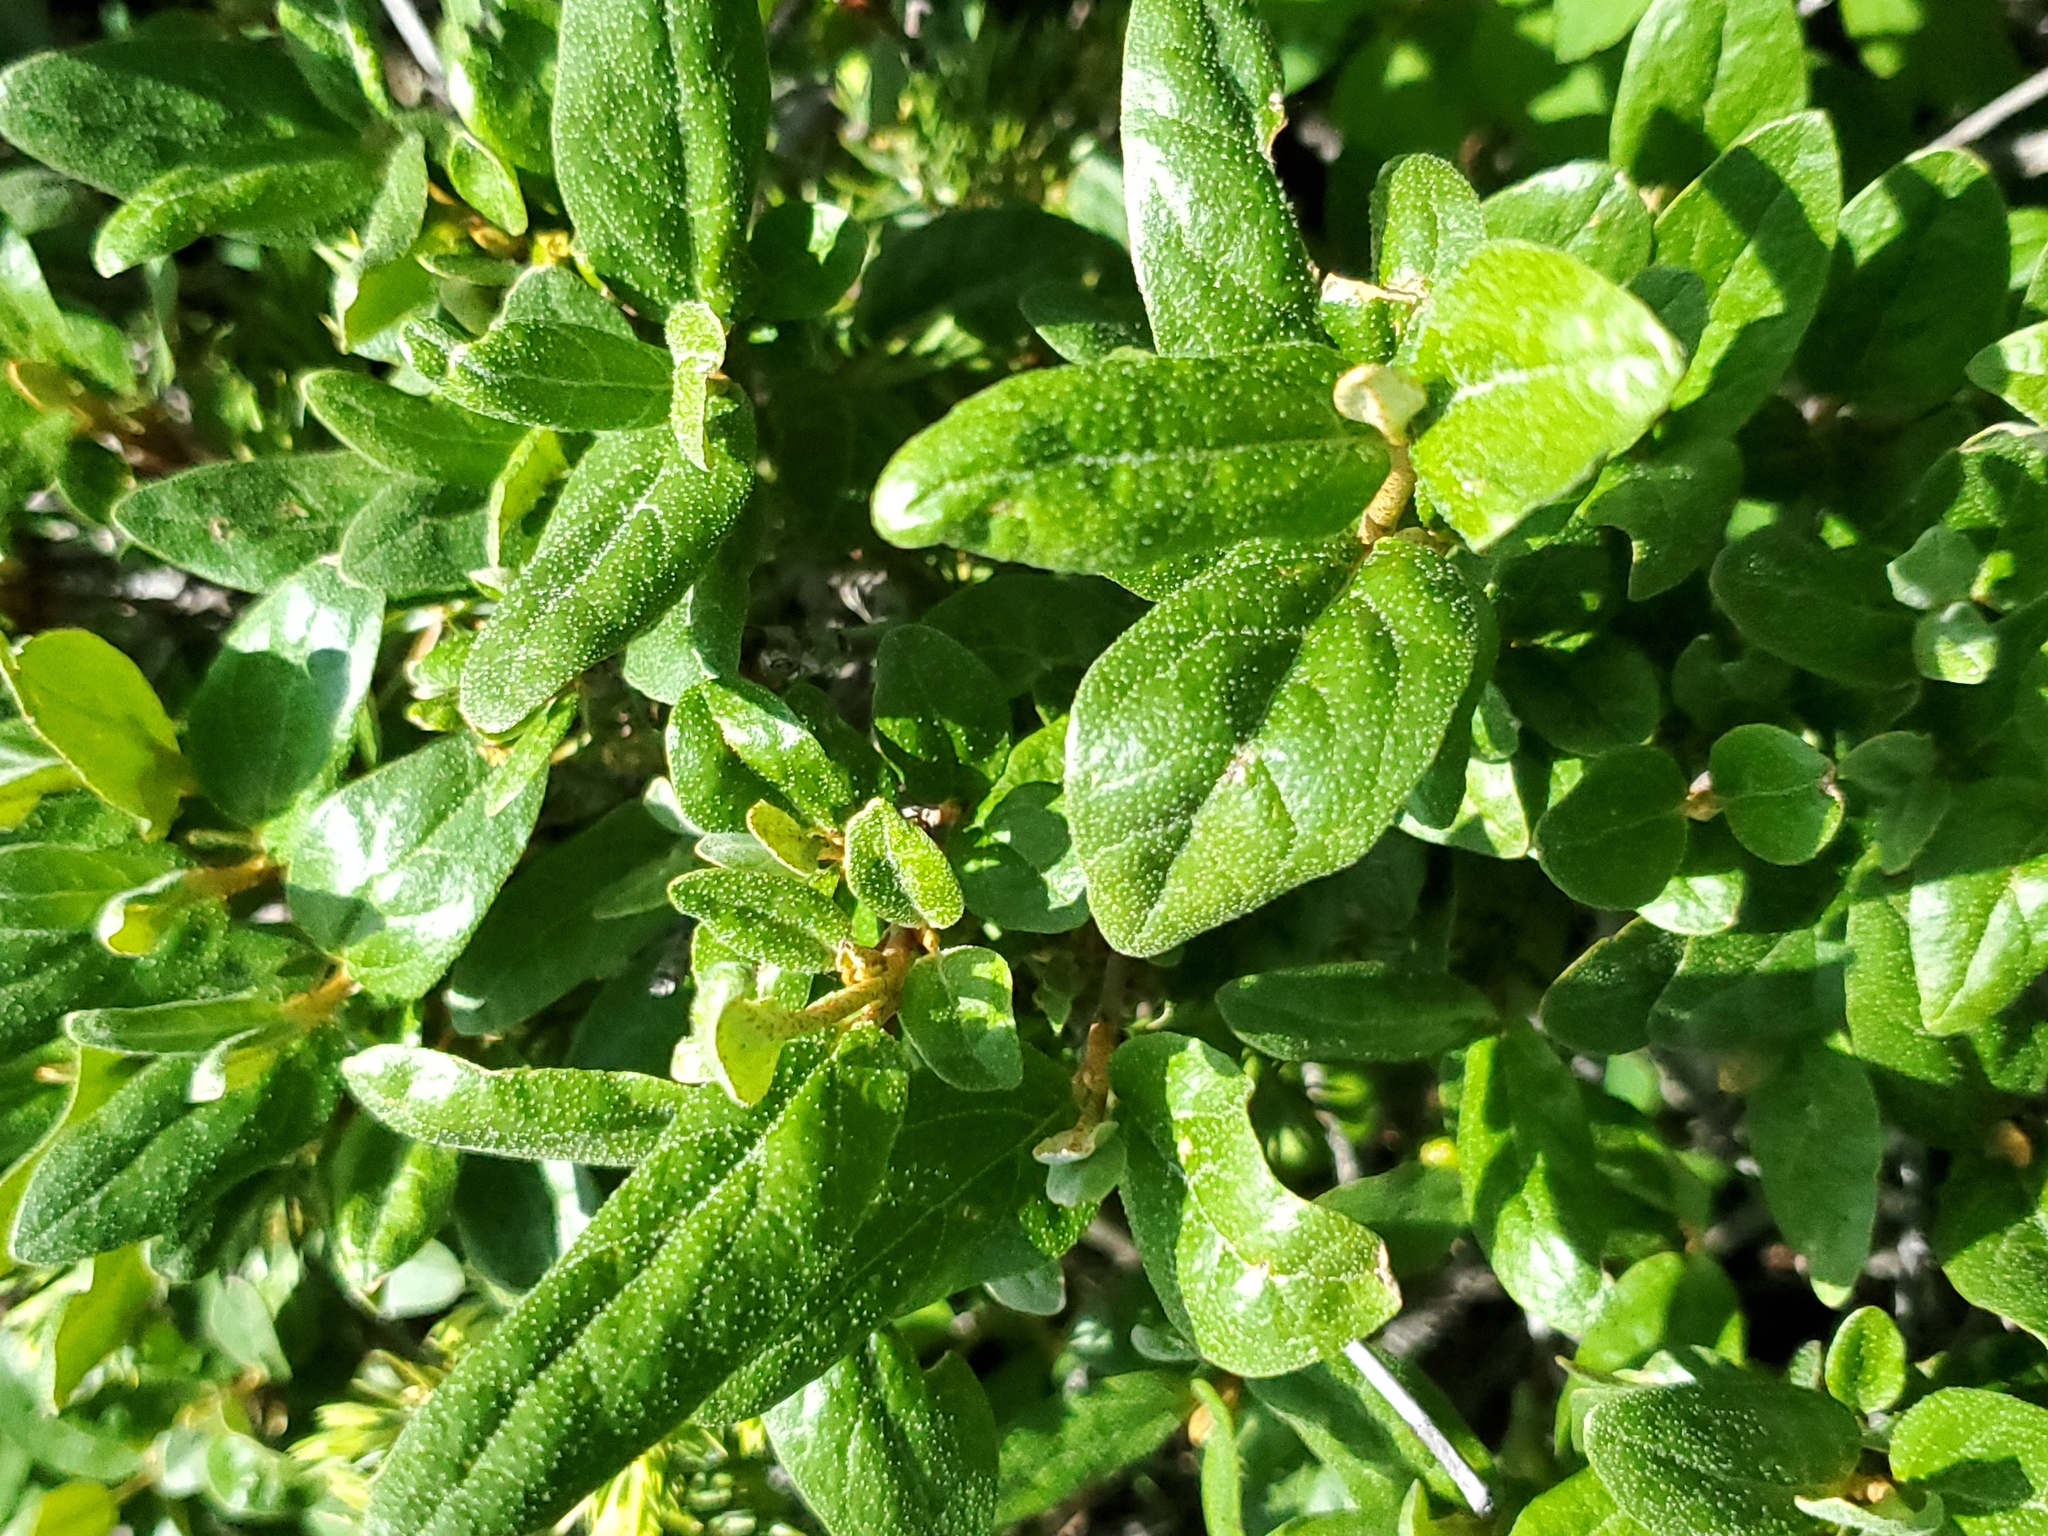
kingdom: Plantae
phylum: Tracheophyta
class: Magnoliopsida
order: Rosales
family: Elaeagnaceae
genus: Shepherdia
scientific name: Shepherdia canadensis
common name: Soapberry
